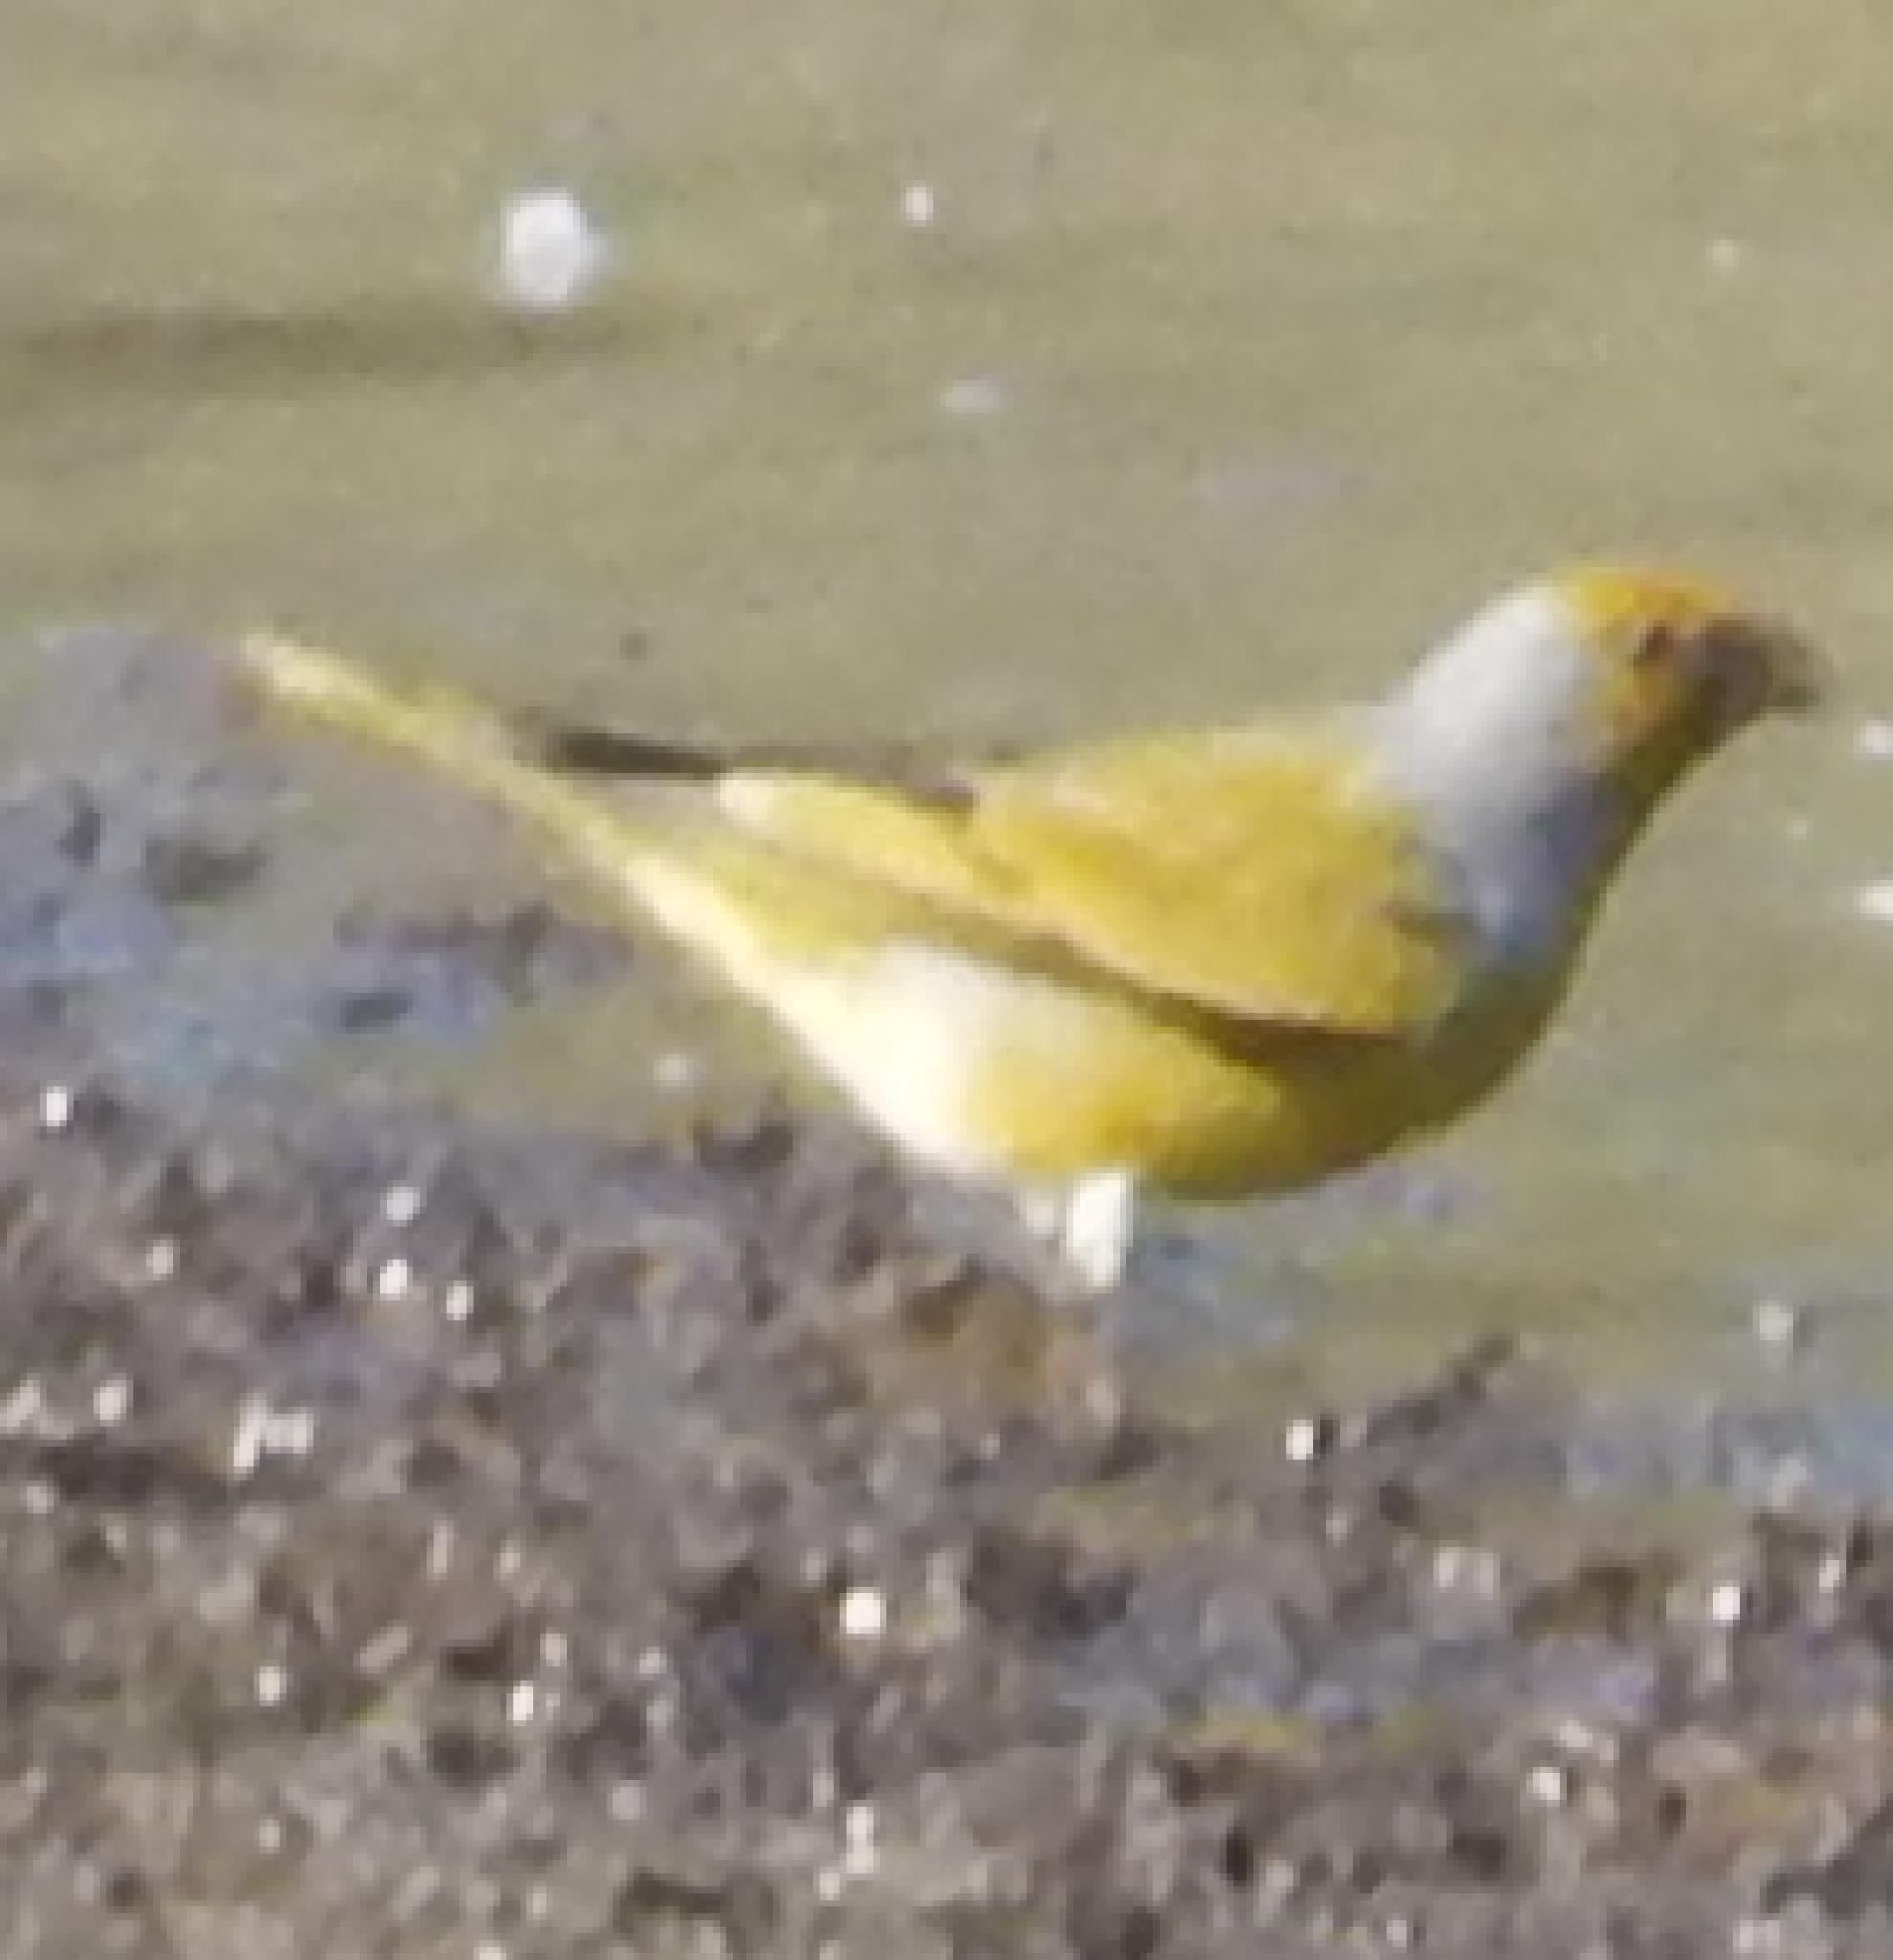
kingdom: Animalia
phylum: Chordata
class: Aves
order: Passeriformes
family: Fringillidae
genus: Serinus
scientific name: Serinus canicollis
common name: Cape canary
